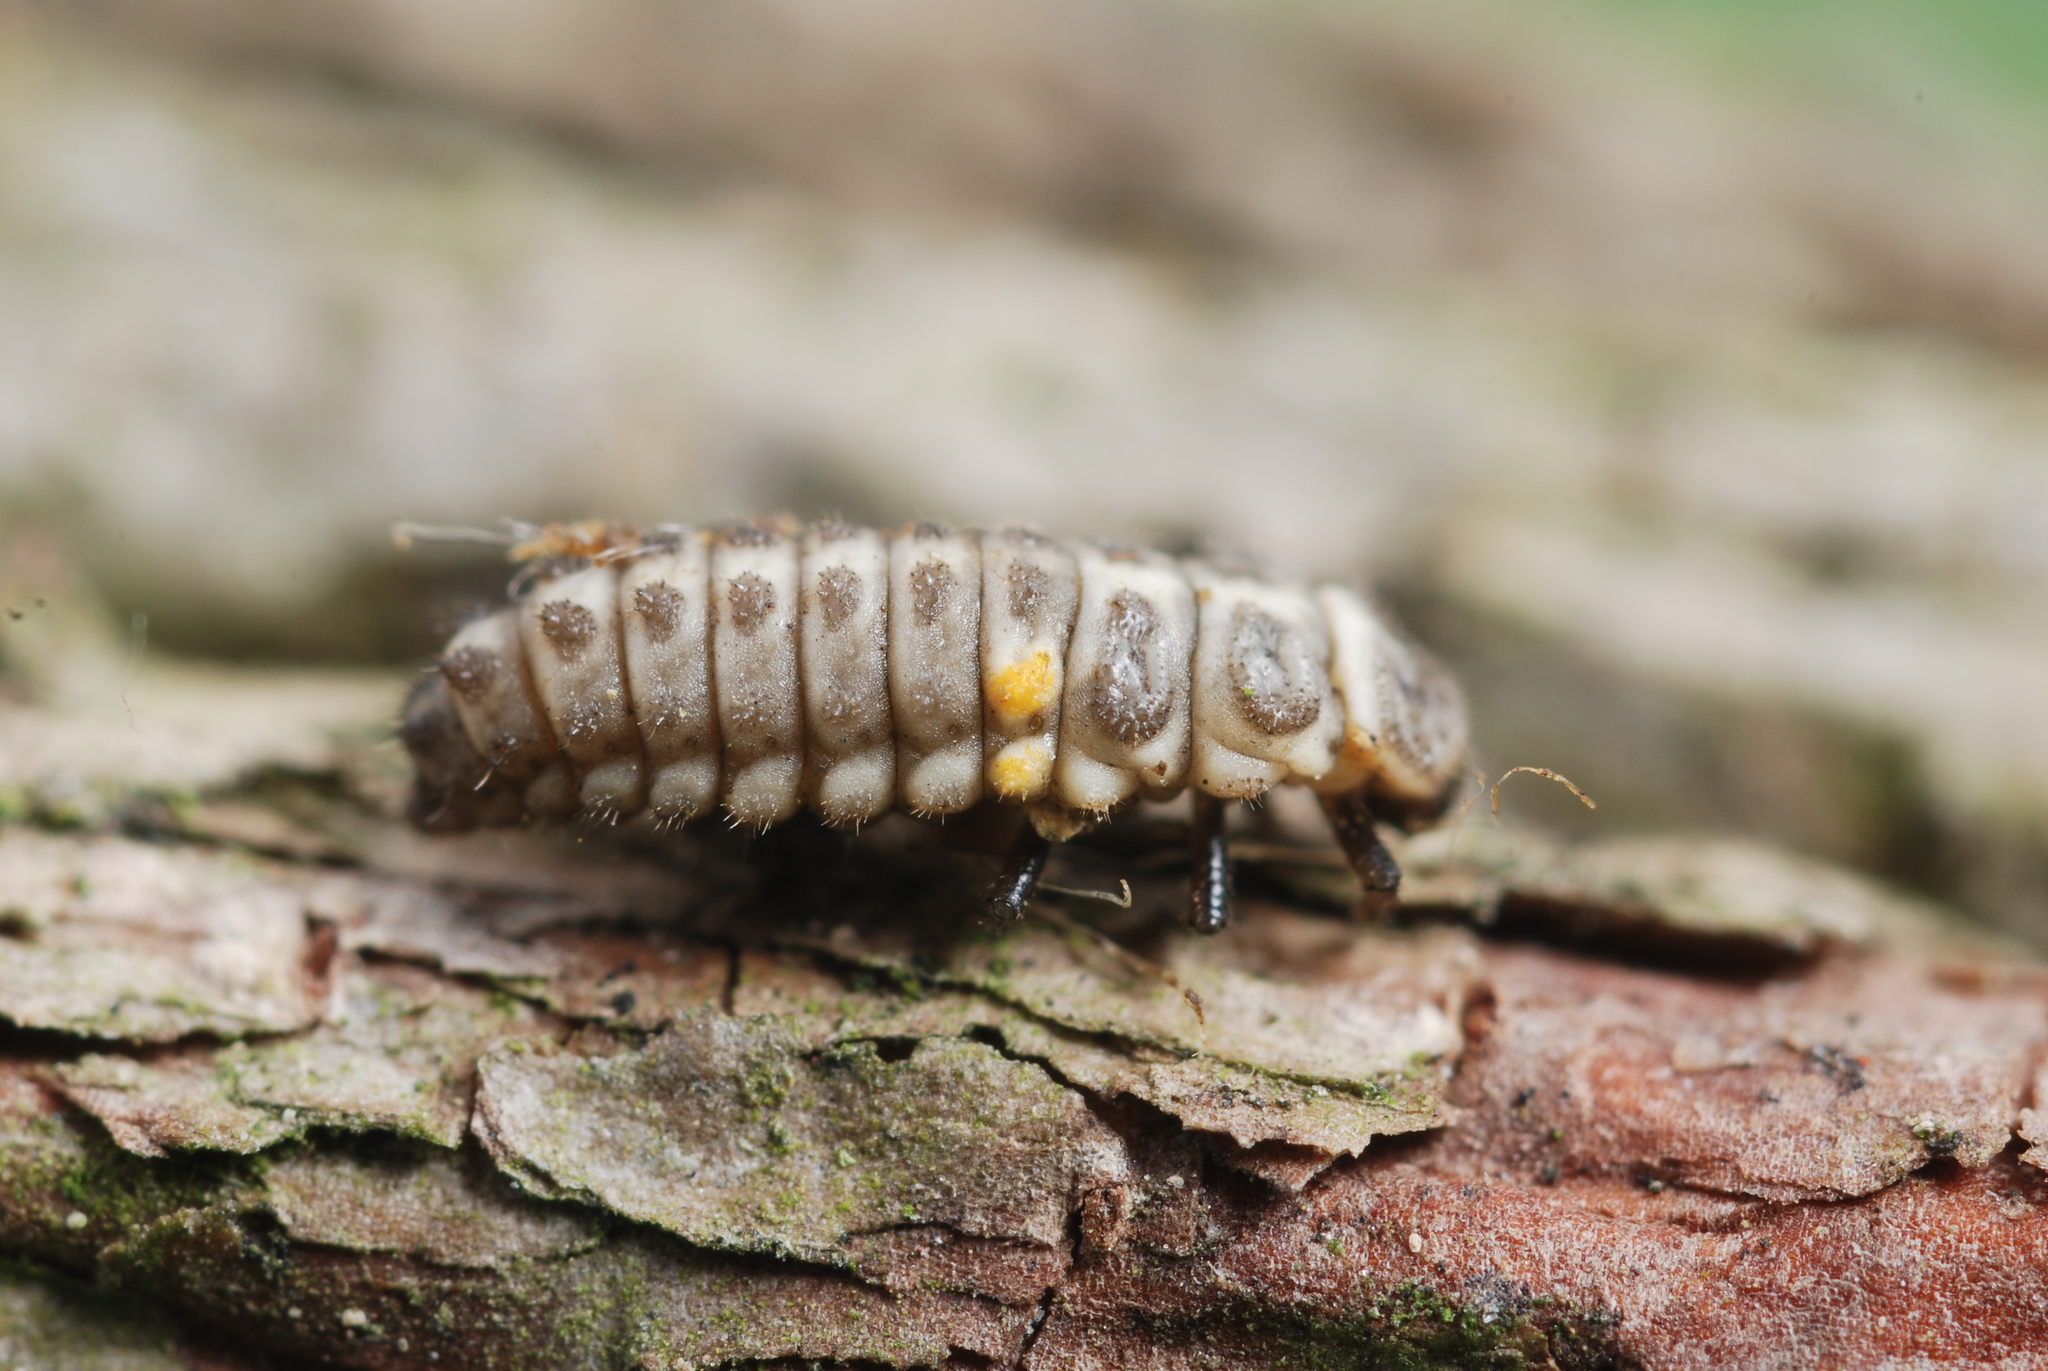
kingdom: Animalia
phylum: Arthropoda
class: Insecta
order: Coleoptera
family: Coccinellidae
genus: Aphidecta
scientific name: Aphidecta obliterata
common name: Larch ladybird
